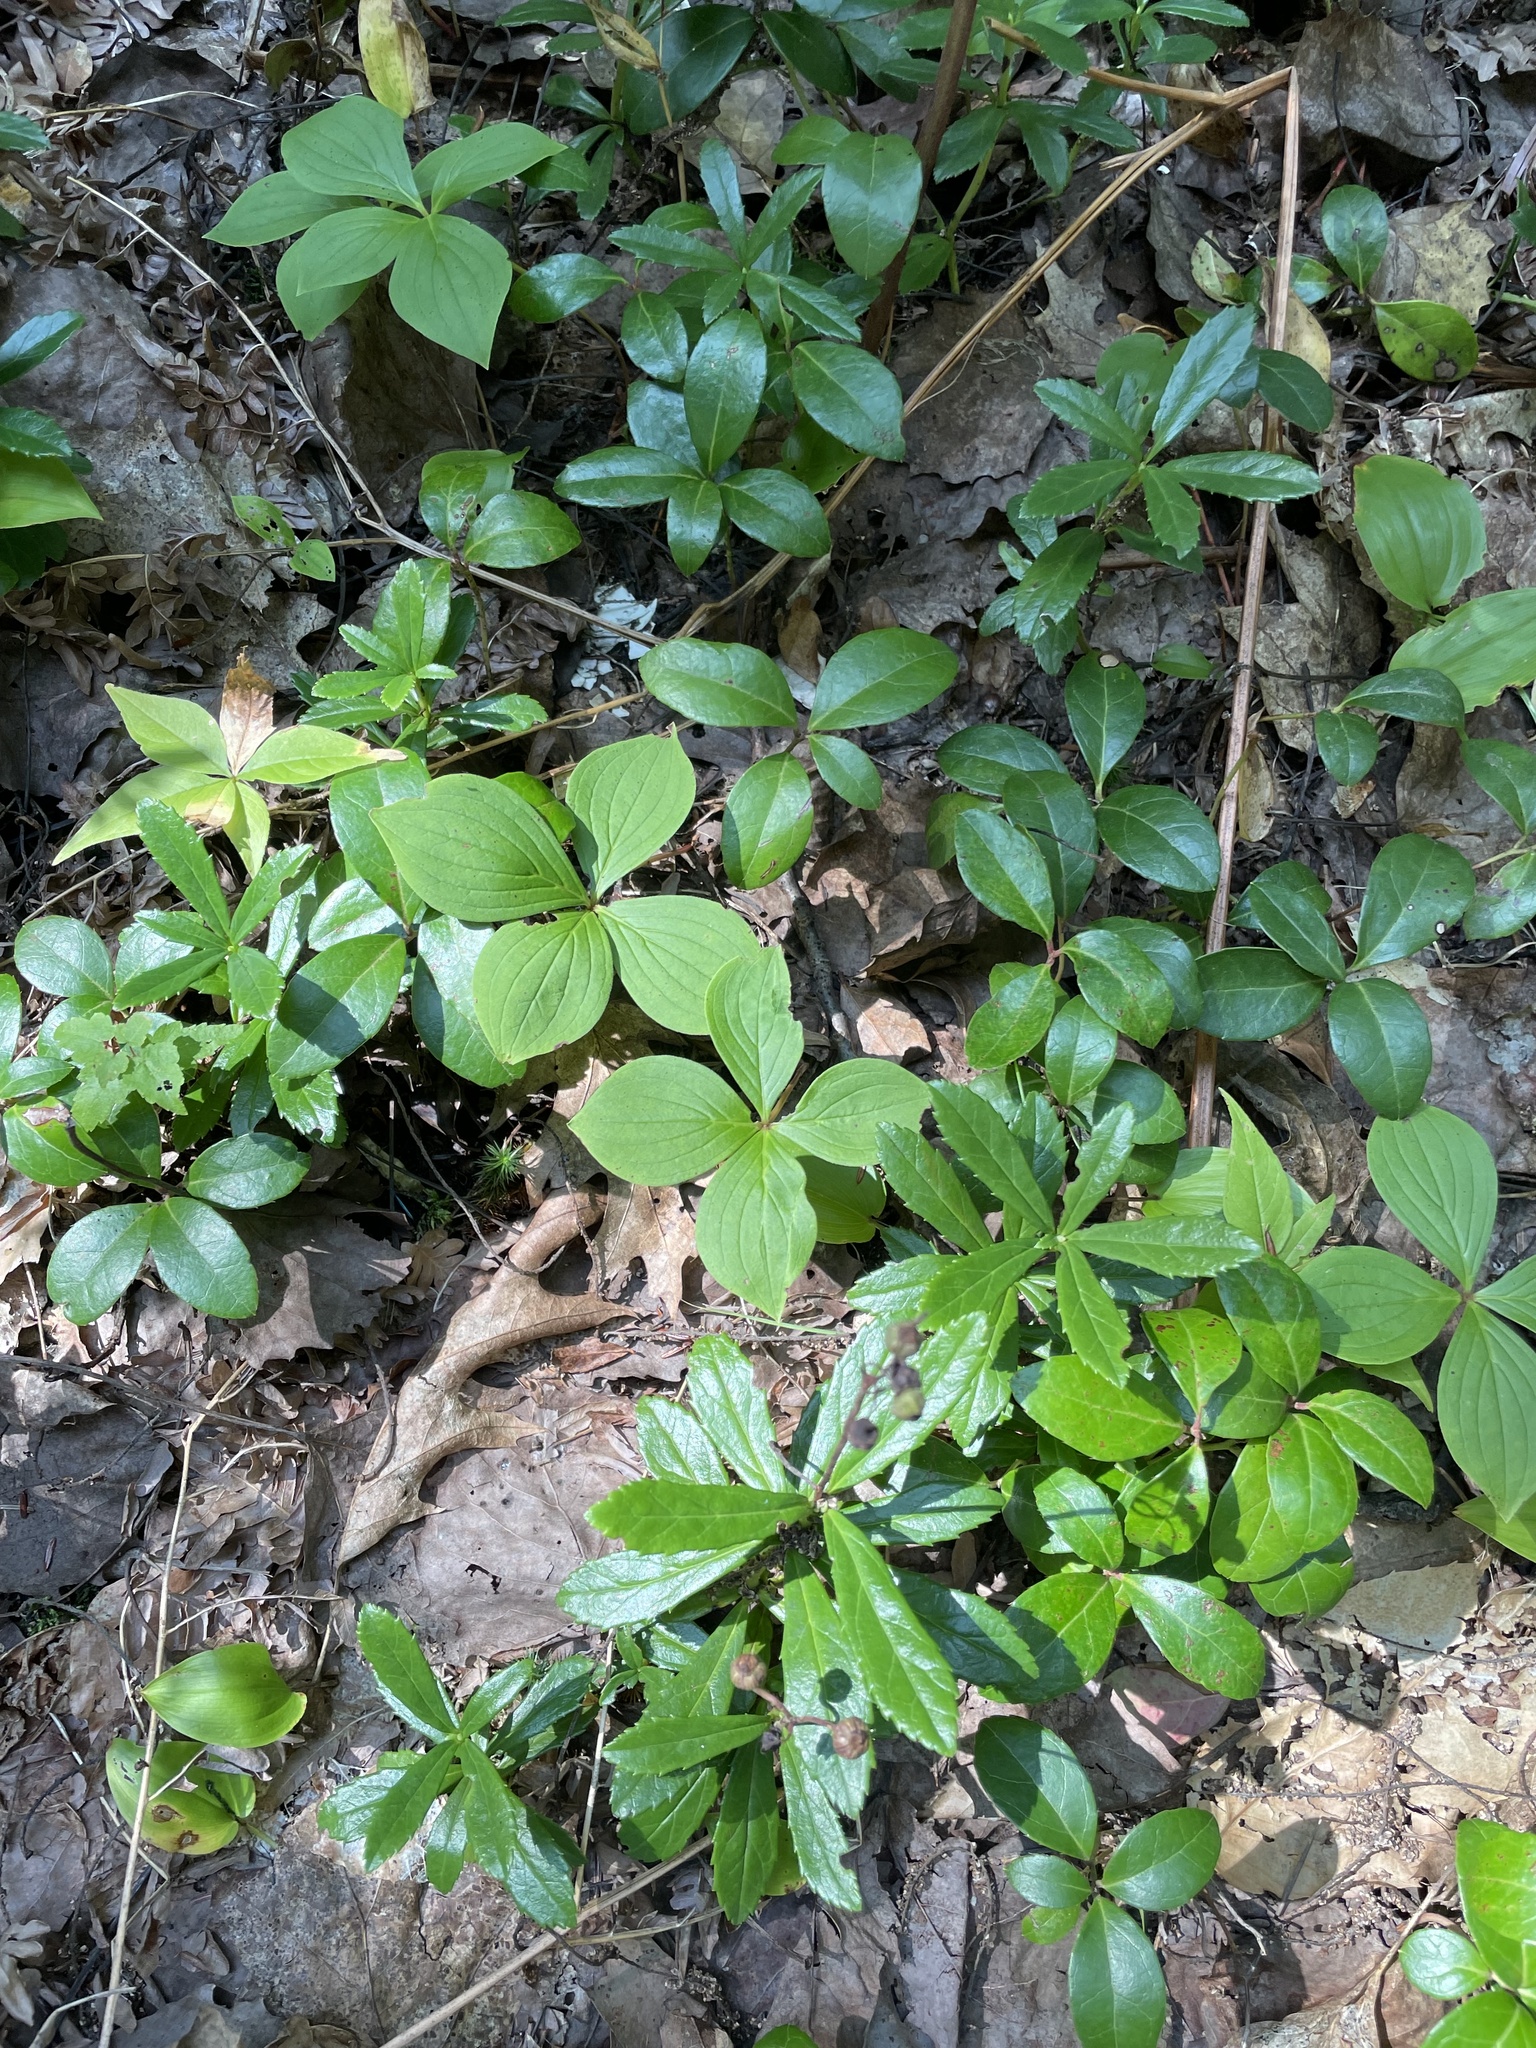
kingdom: Plantae
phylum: Tracheophyta
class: Magnoliopsida
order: Cornales
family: Cornaceae
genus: Cornus
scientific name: Cornus canadensis
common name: Creeping dogwood
